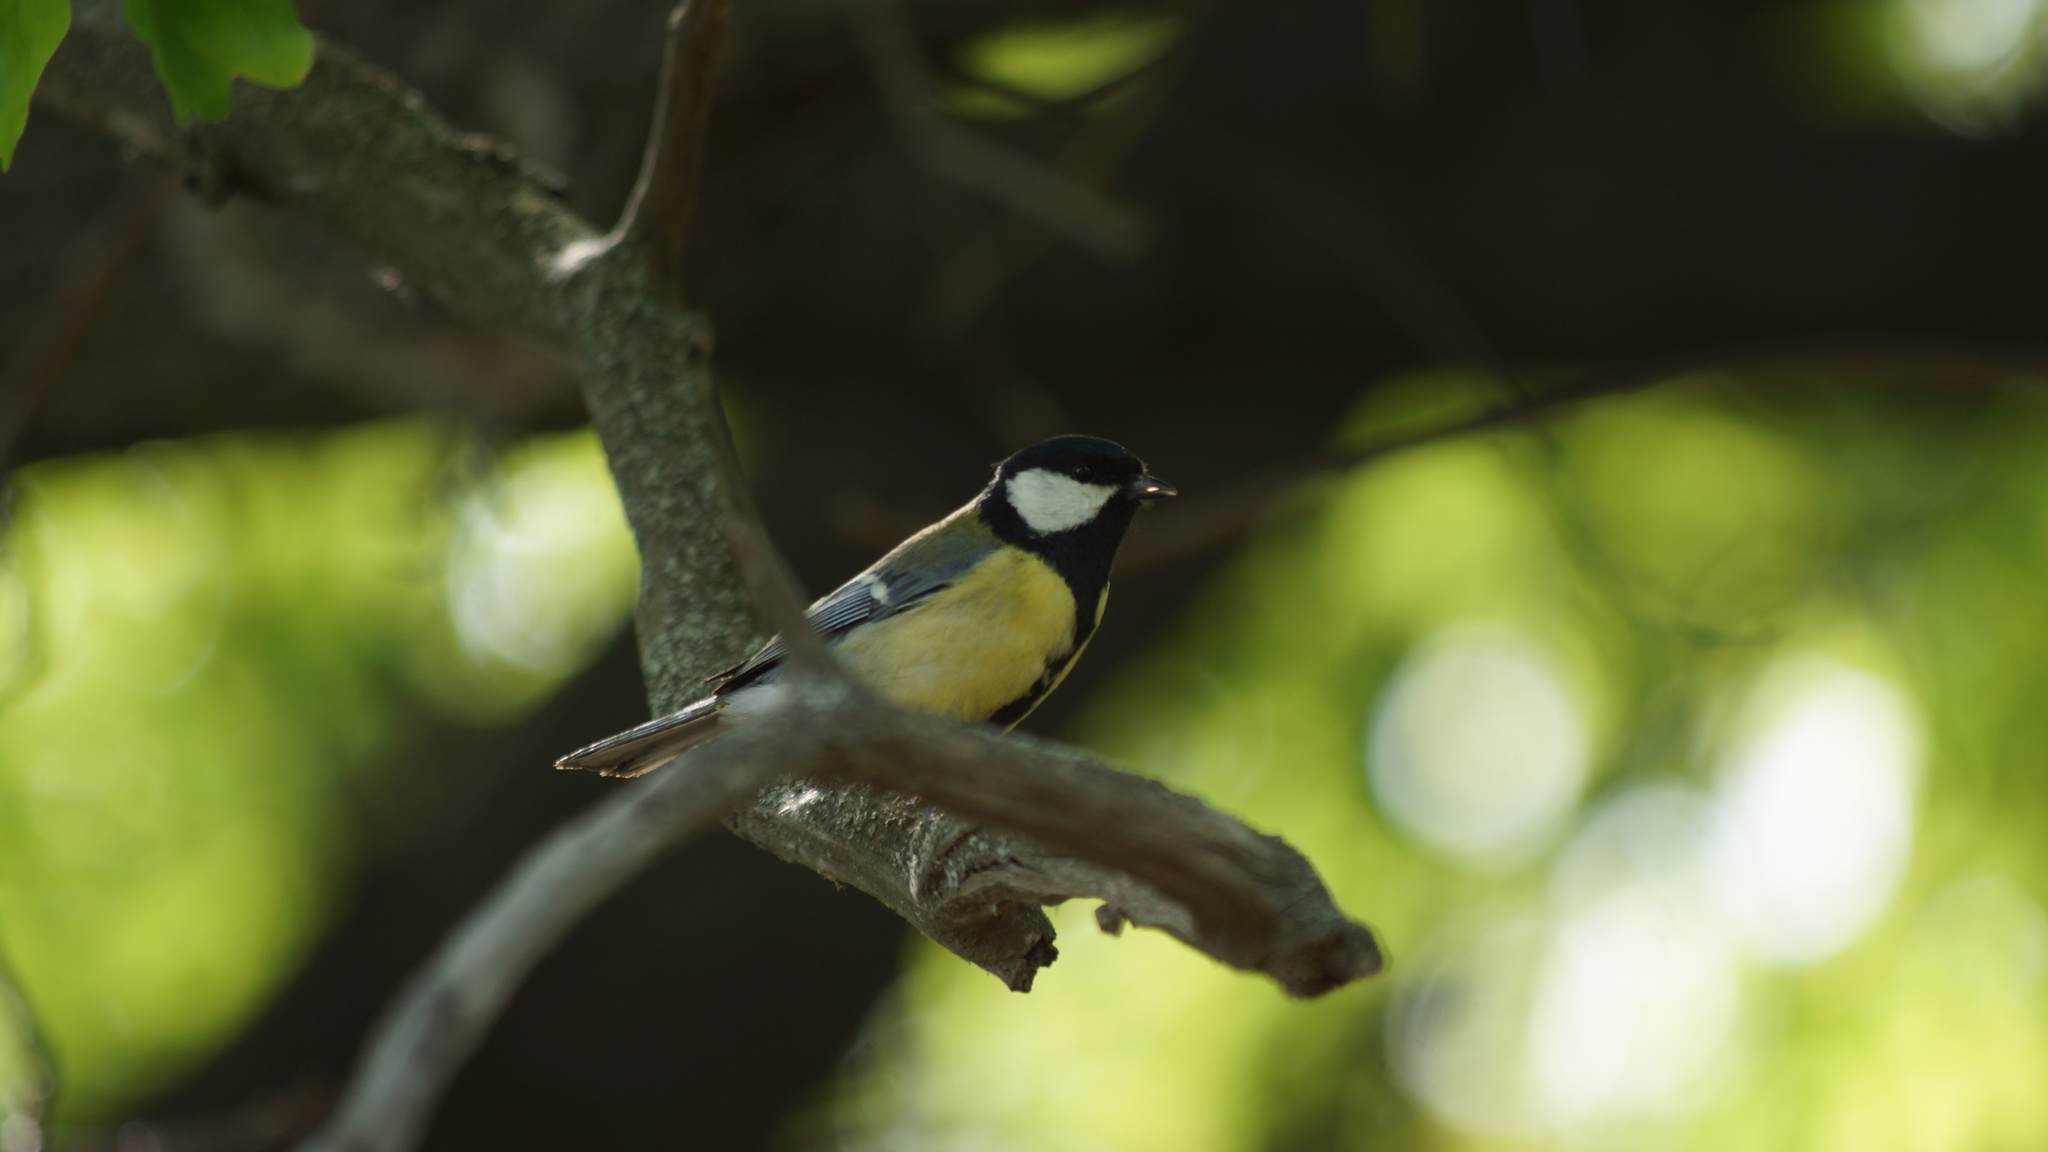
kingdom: Animalia
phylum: Chordata
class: Aves
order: Passeriformes
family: Paridae
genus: Parus
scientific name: Parus major
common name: Great tit
